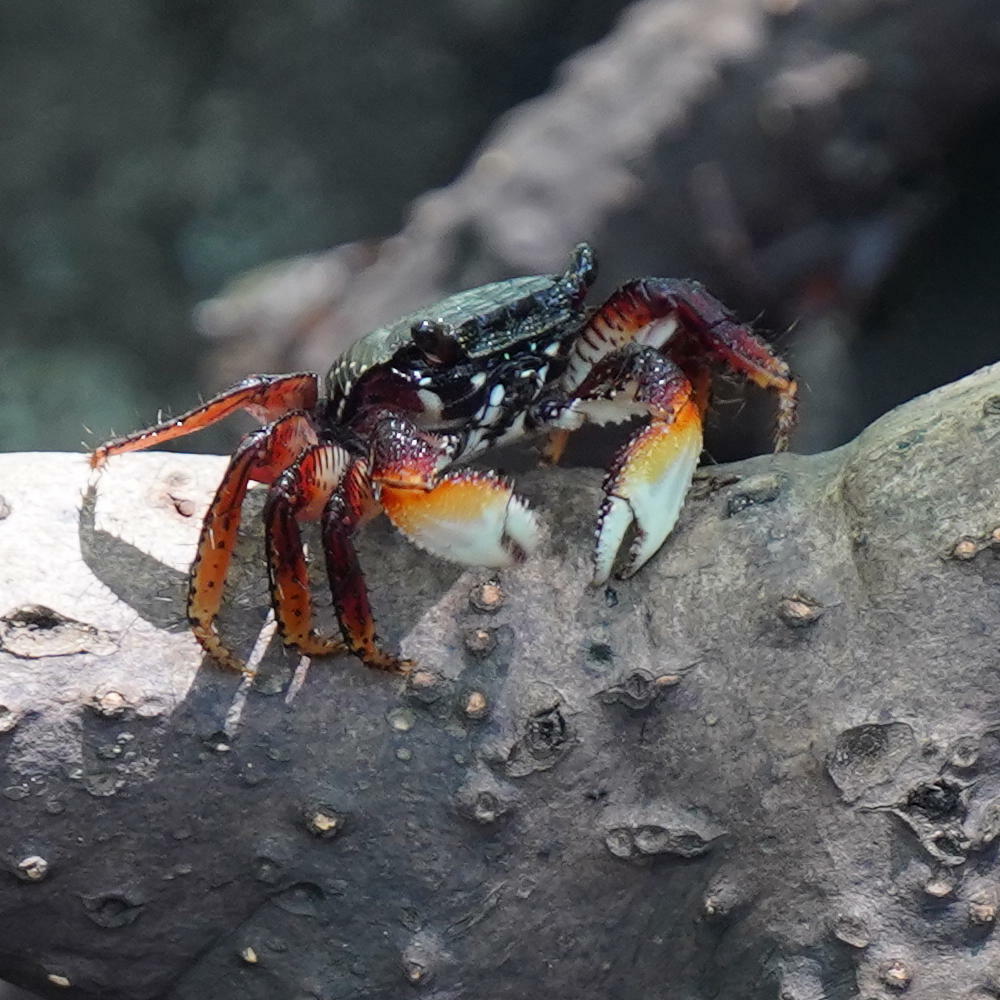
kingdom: Animalia
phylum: Arthropoda
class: Malacostraca
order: Decapoda
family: Grapsidae
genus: Goniopsis
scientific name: Goniopsis cruentata
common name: Mangrove crab
